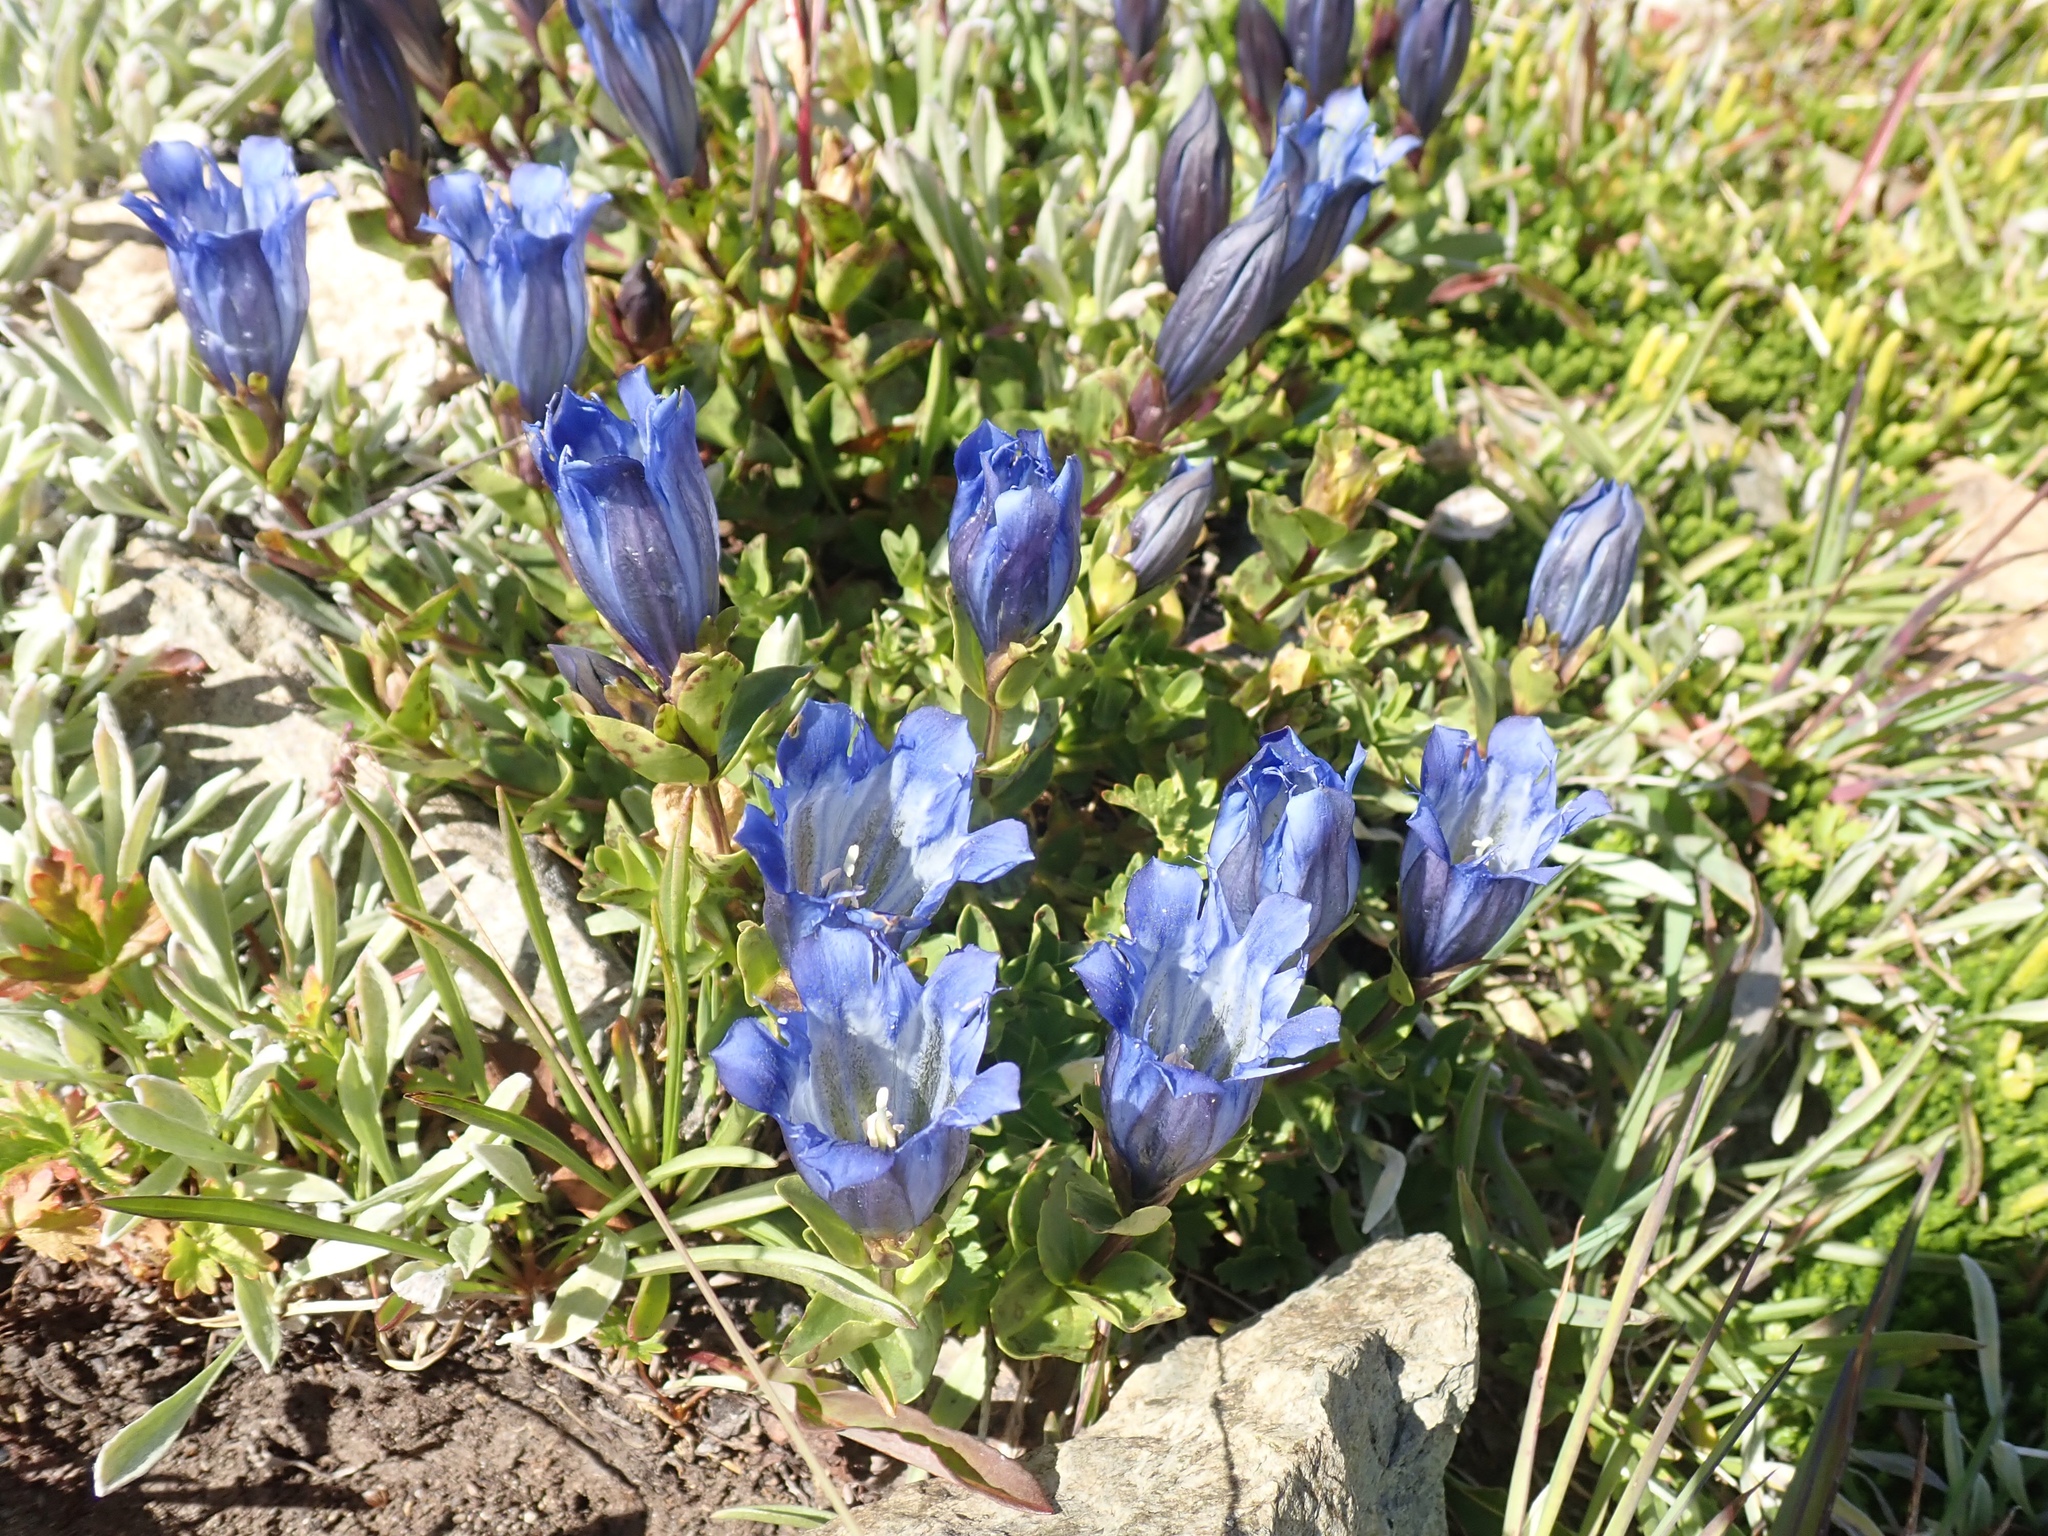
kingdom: Plantae
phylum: Tracheophyta
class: Magnoliopsida
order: Gentianales
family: Gentianaceae
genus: Gentiana
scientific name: Gentiana calycosa
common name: Rainier pleated gentian
